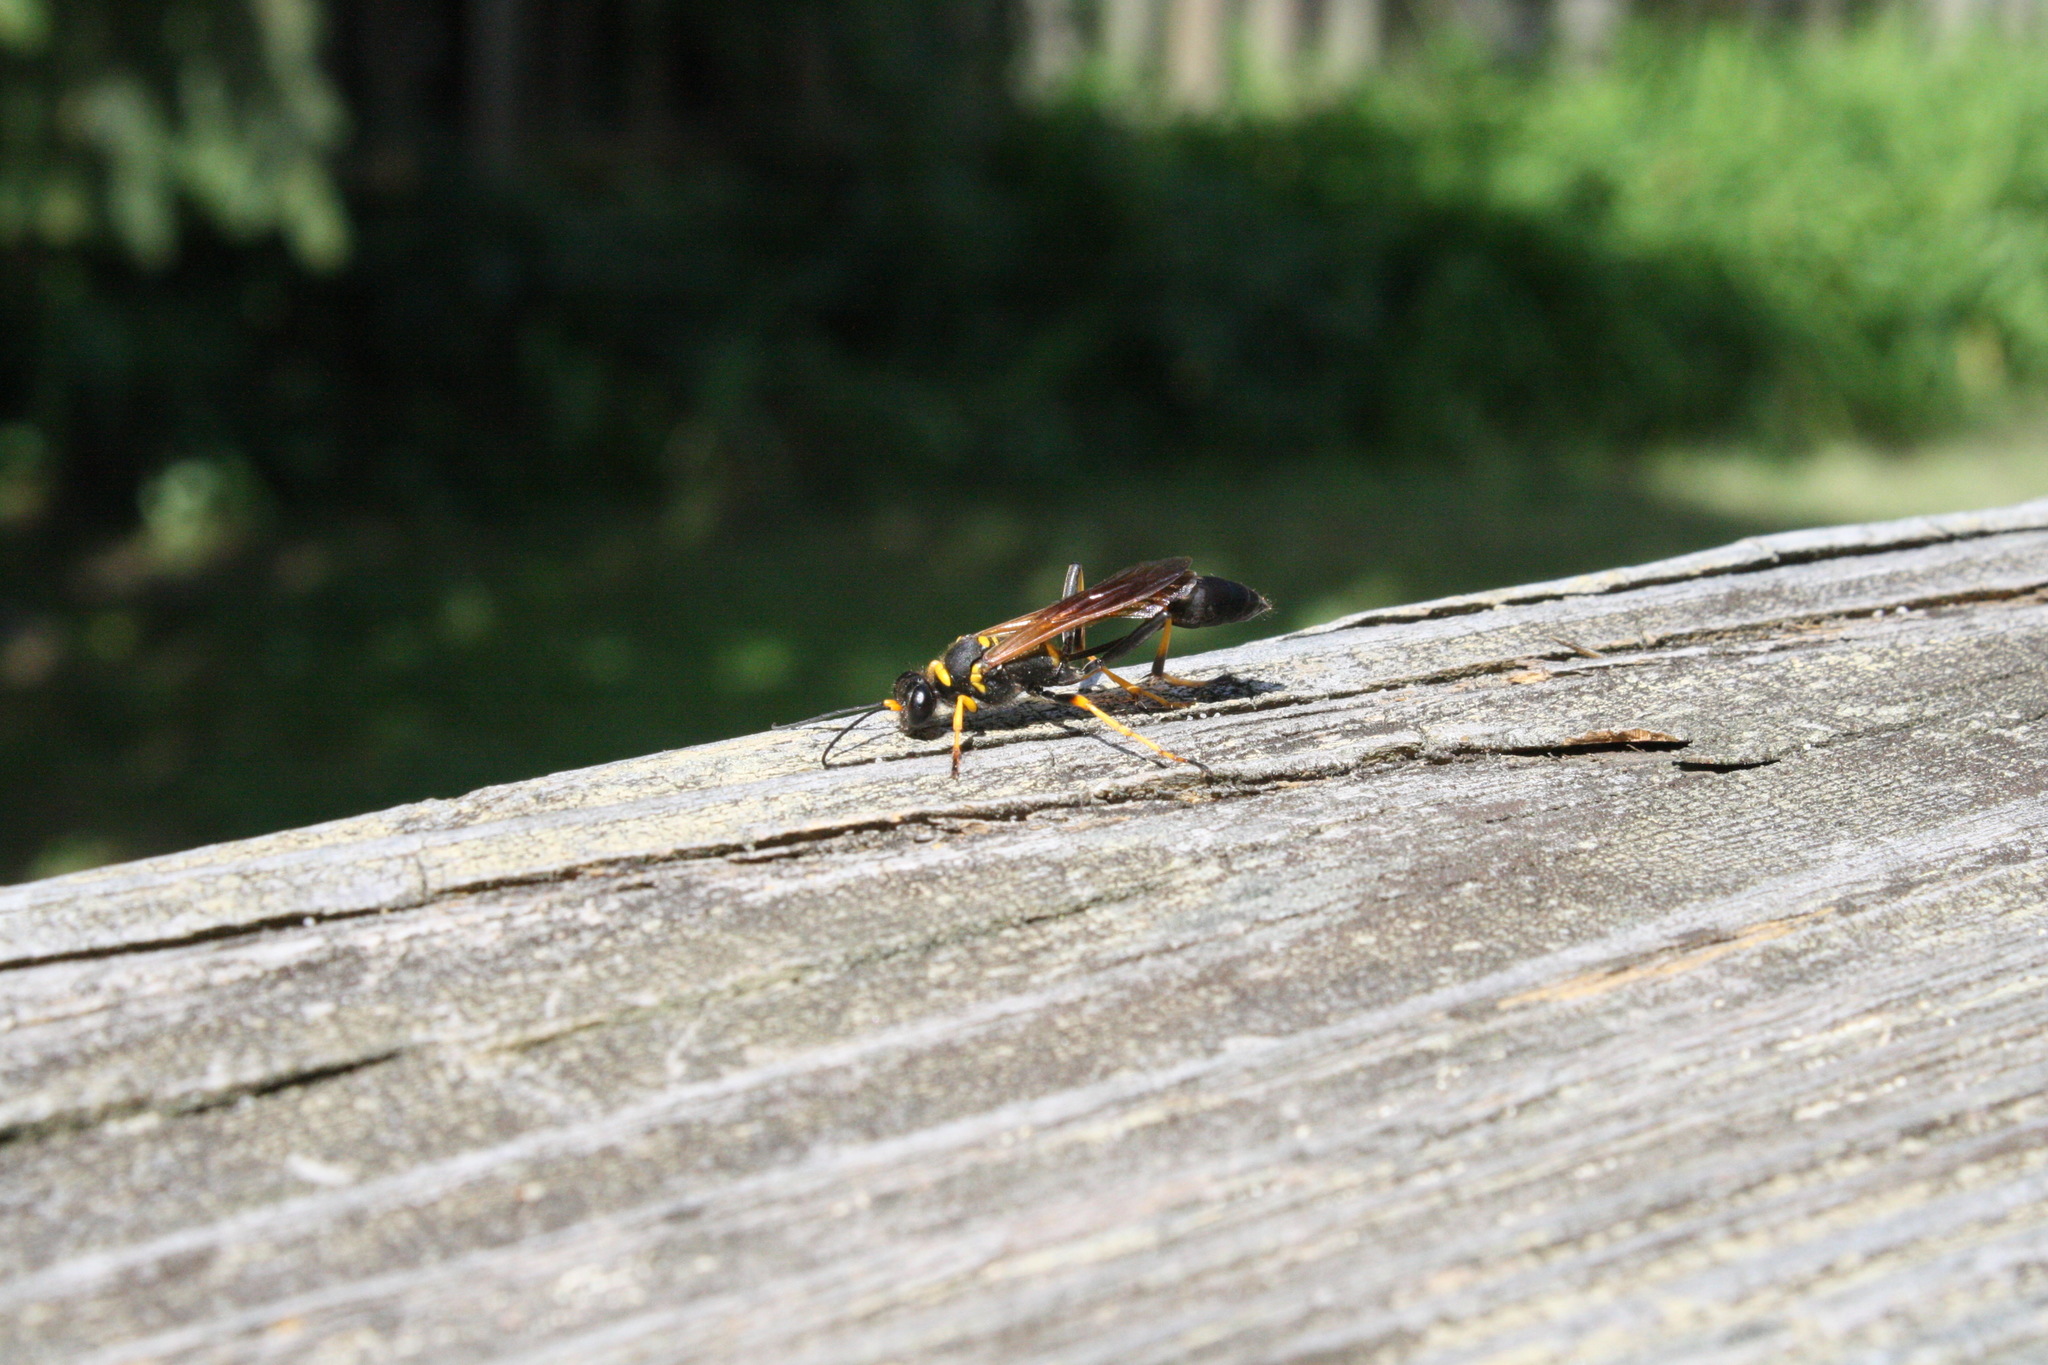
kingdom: Animalia
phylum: Arthropoda
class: Insecta
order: Hymenoptera
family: Sphecidae
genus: Sceliphron
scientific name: Sceliphron caementarium
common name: Mud dauber
